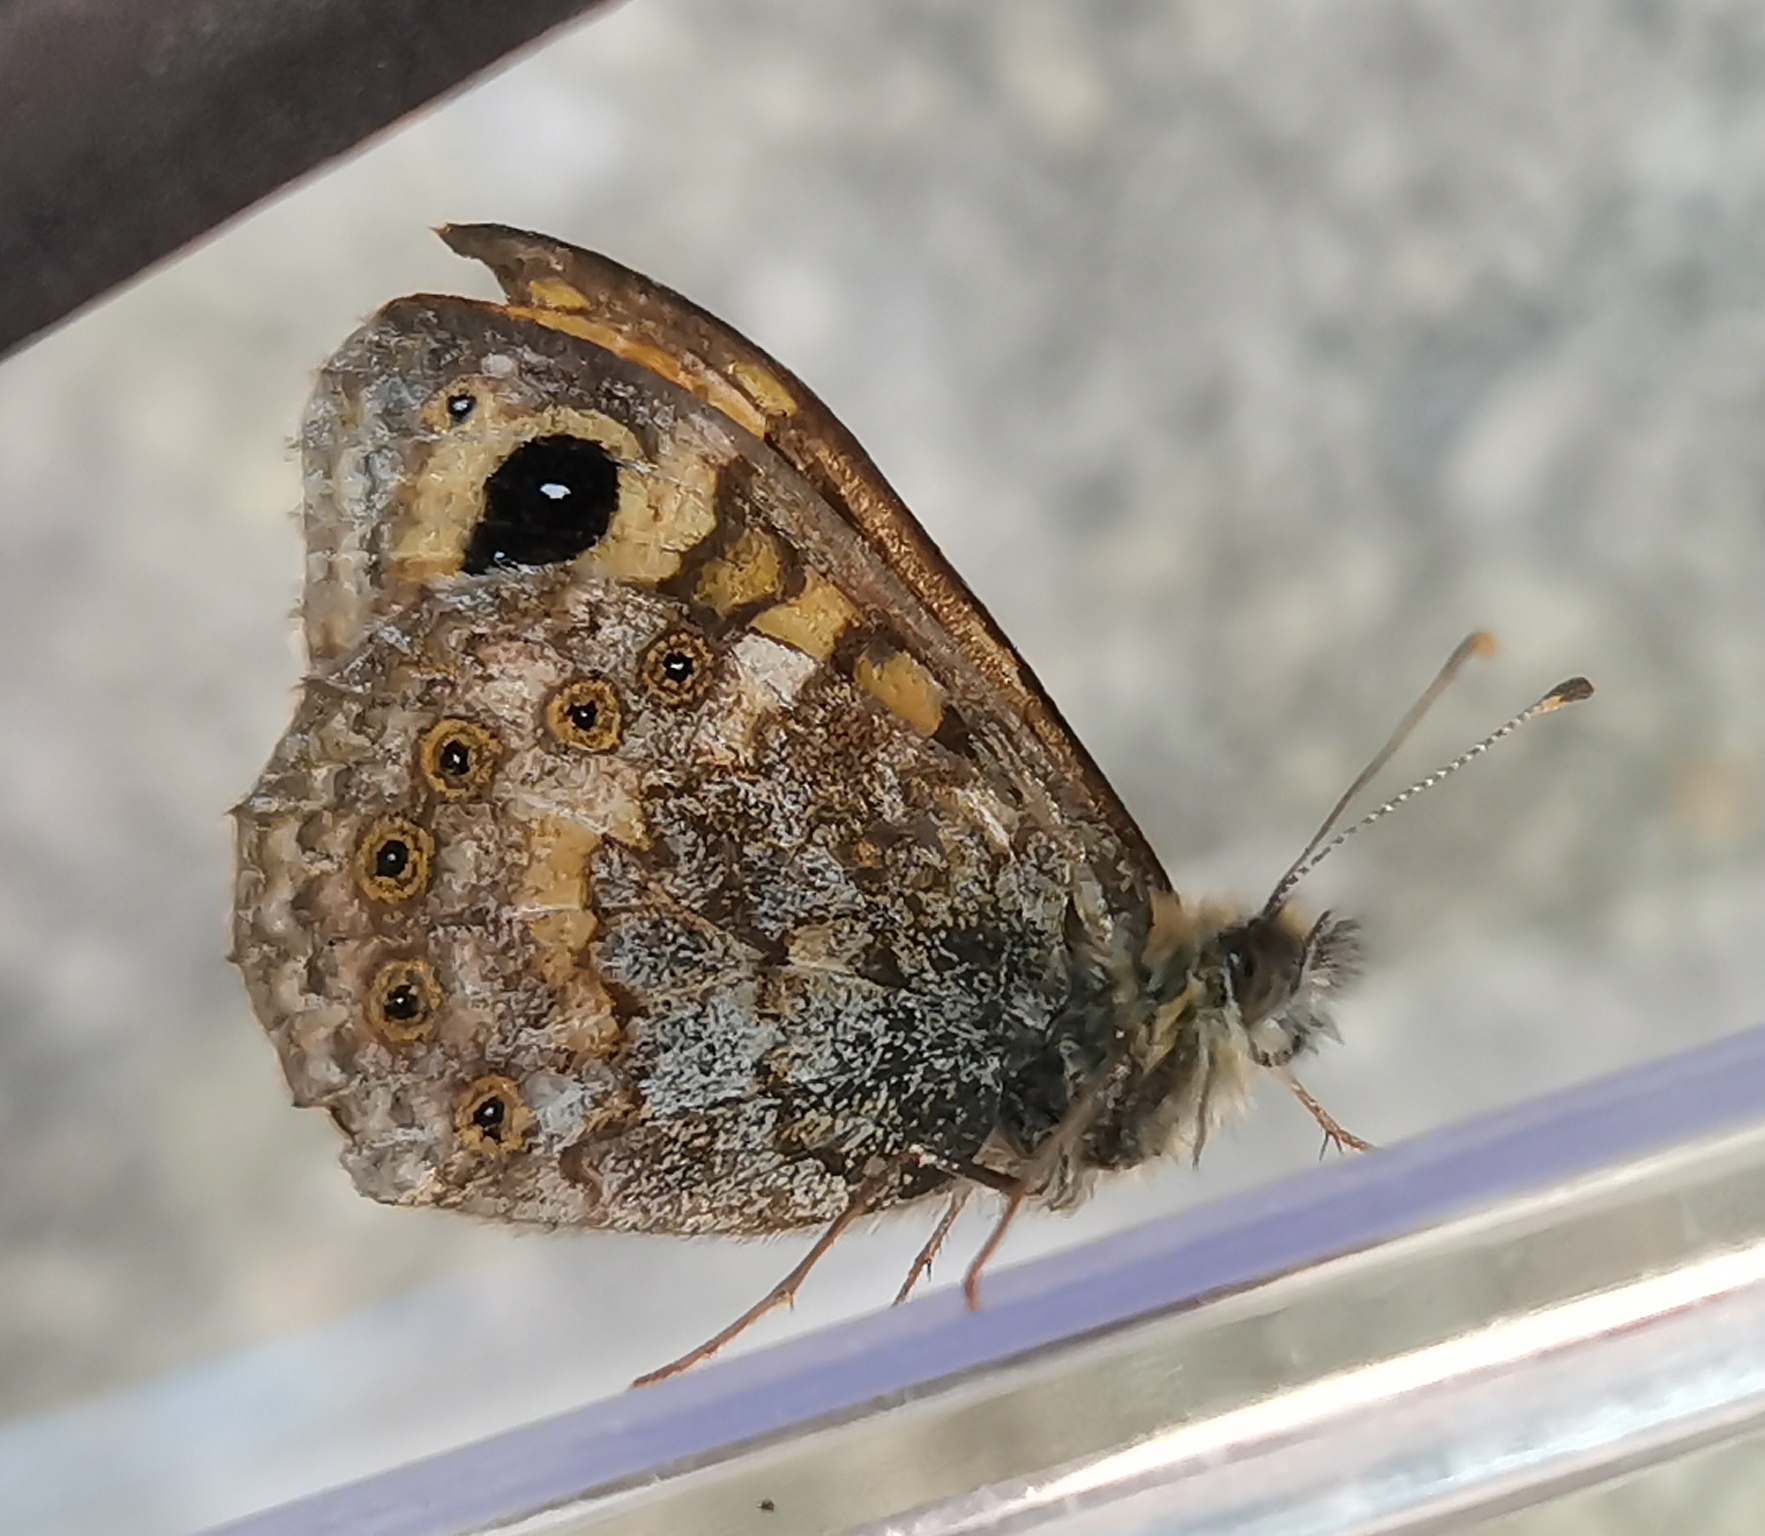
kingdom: Animalia
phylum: Arthropoda
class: Insecta
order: Lepidoptera
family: Nymphalidae
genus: Pararge
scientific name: Pararge Lasiommata megera
